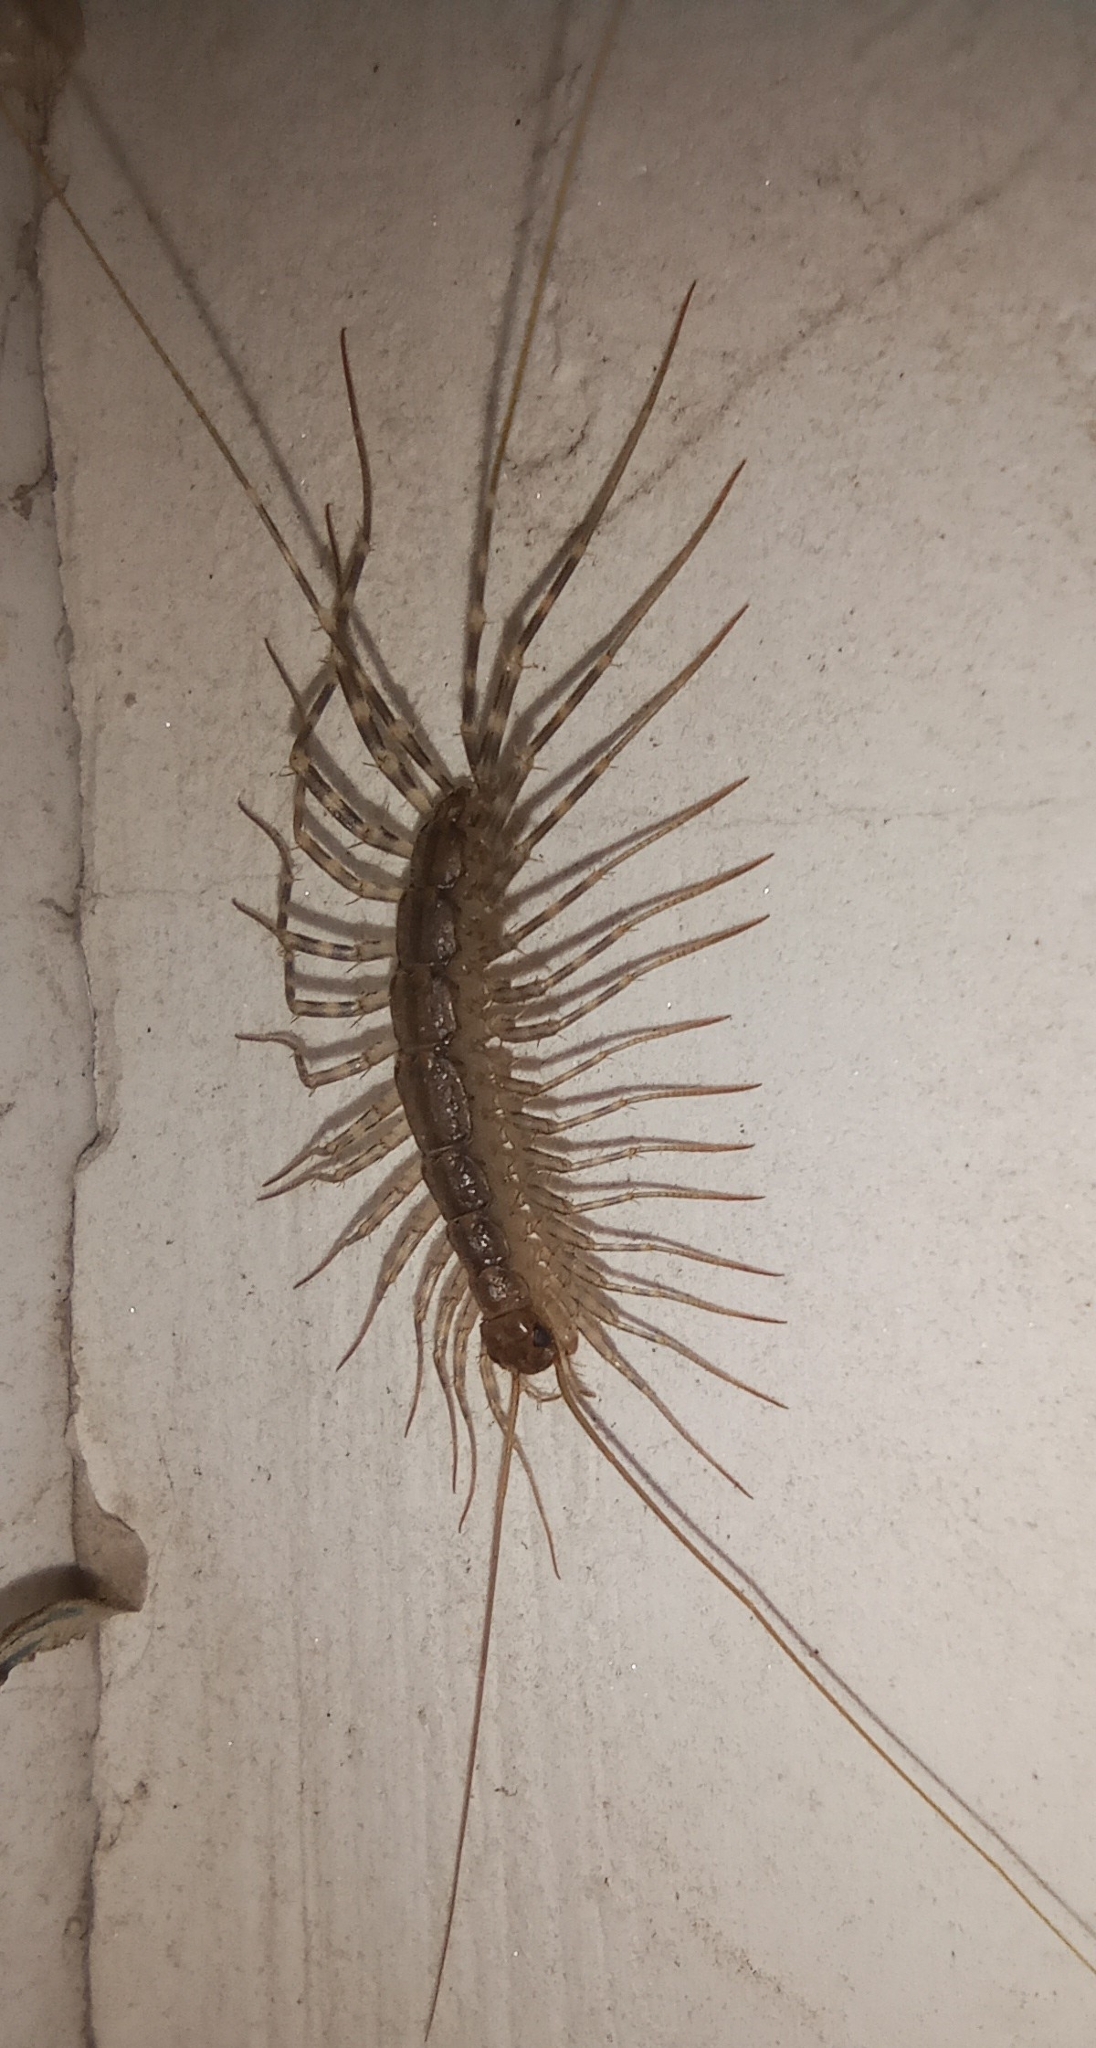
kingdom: Animalia
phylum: Arthropoda
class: Chilopoda
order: Scutigeromorpha
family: Scutigeridae
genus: Scutigera
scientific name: Scutigera coleoptrata
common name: House centipede
